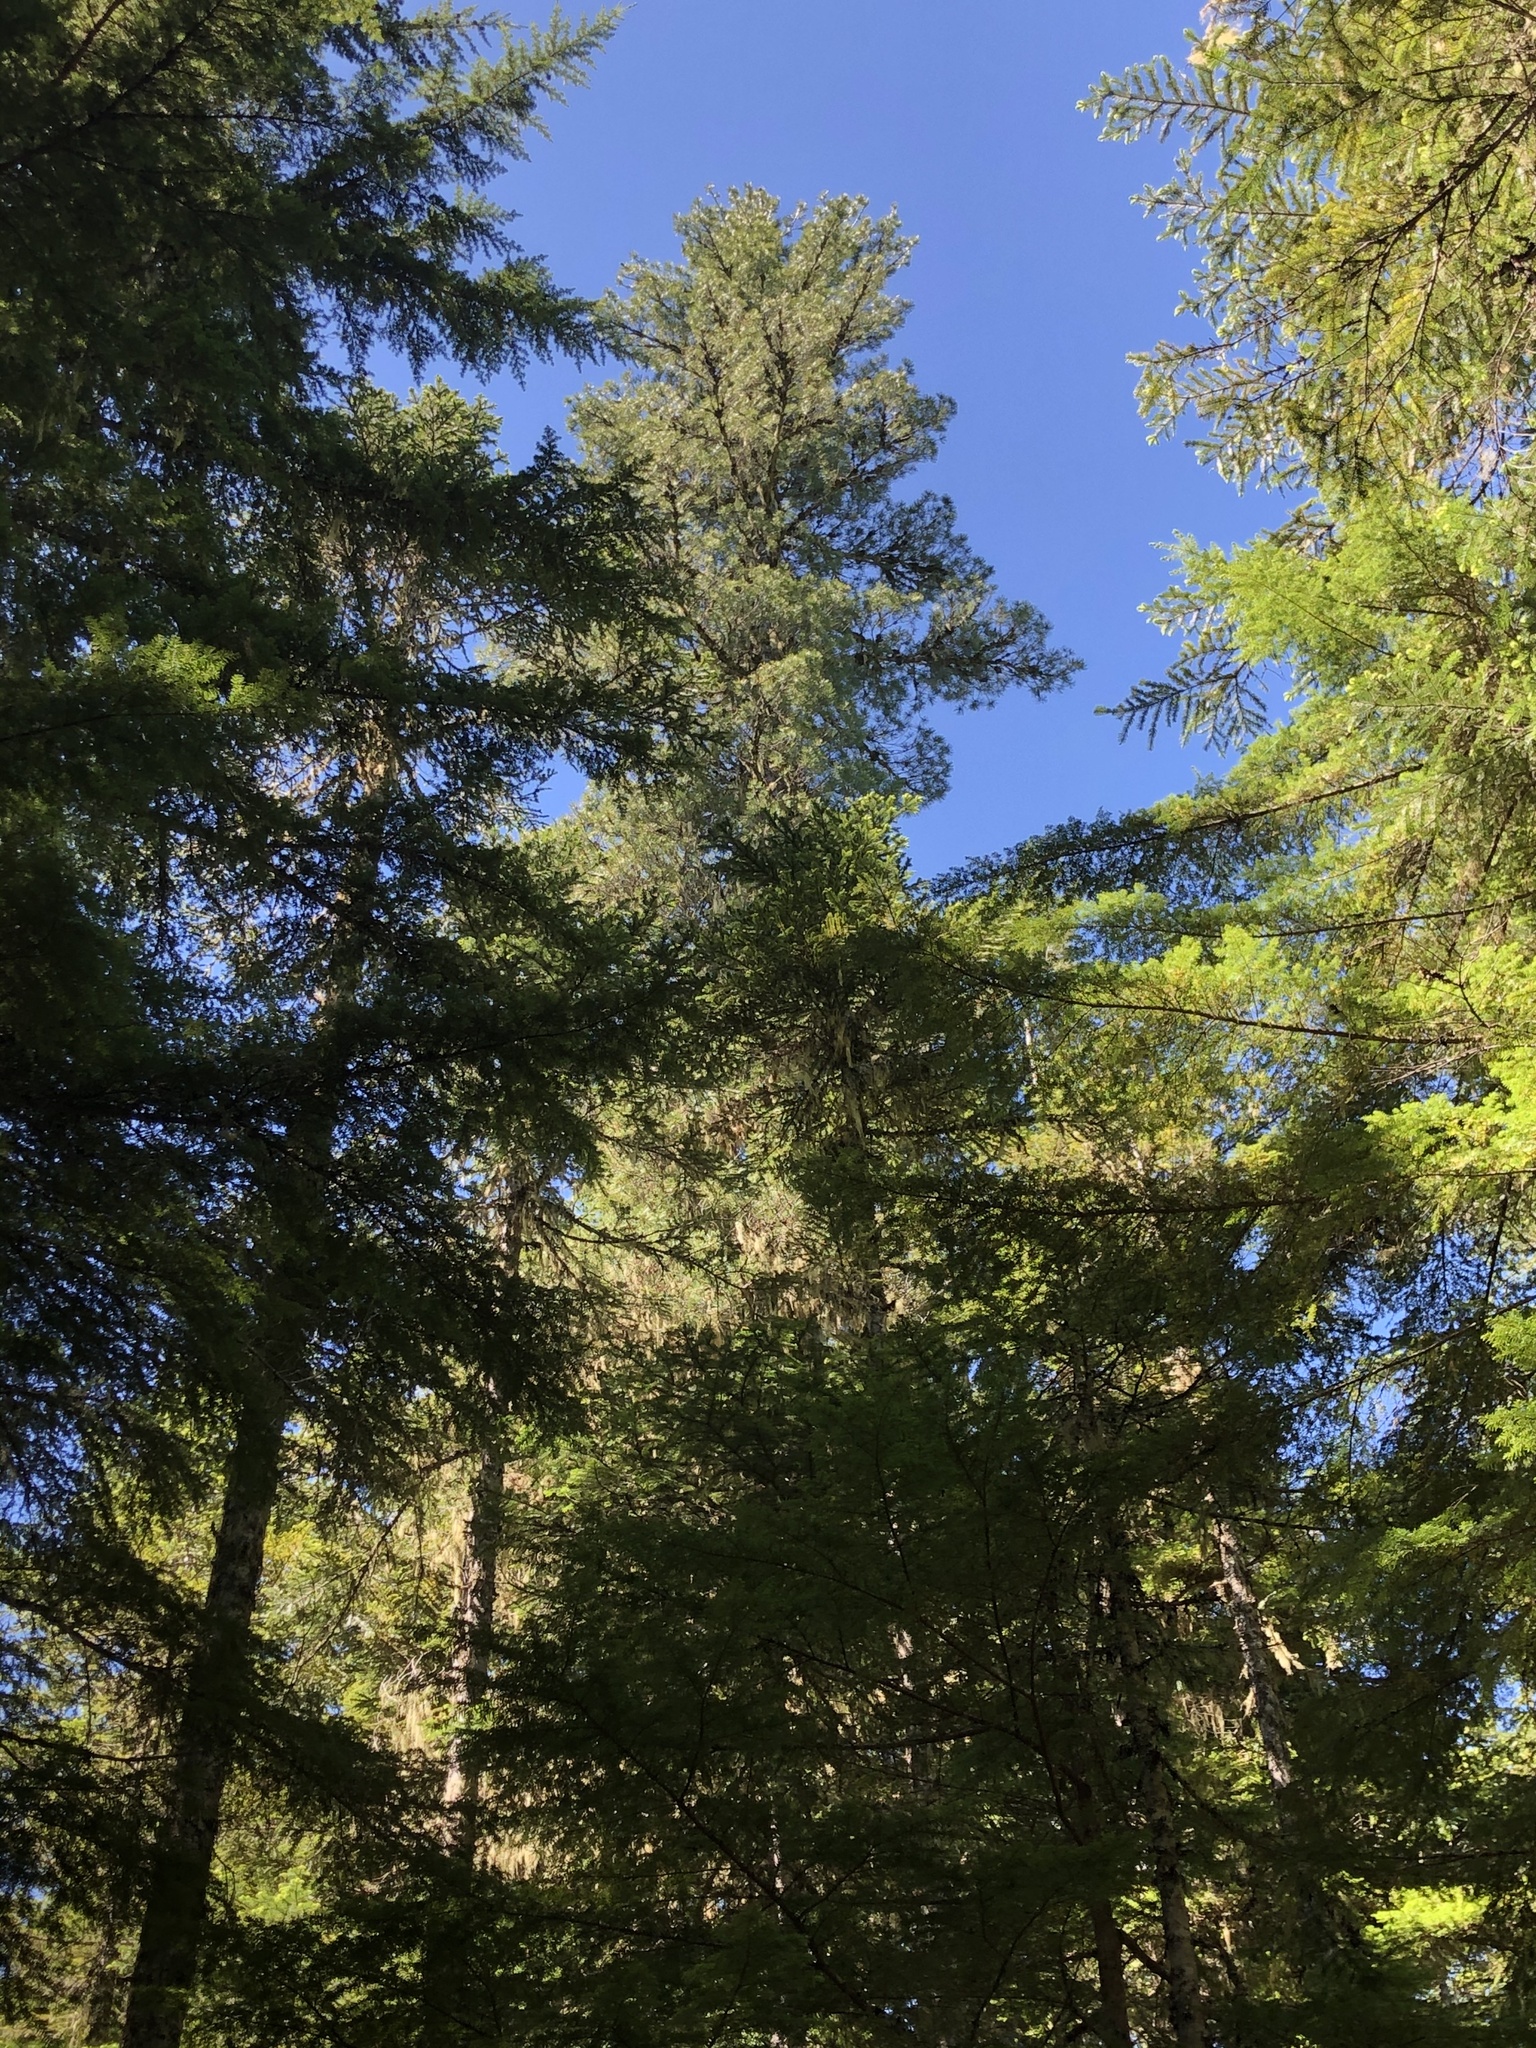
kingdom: Plantae
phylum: Tracheophyta
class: Pinopsida
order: Pinales
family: Pinaceae
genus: Pinus
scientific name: Pinus monticola
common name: Western white pine
